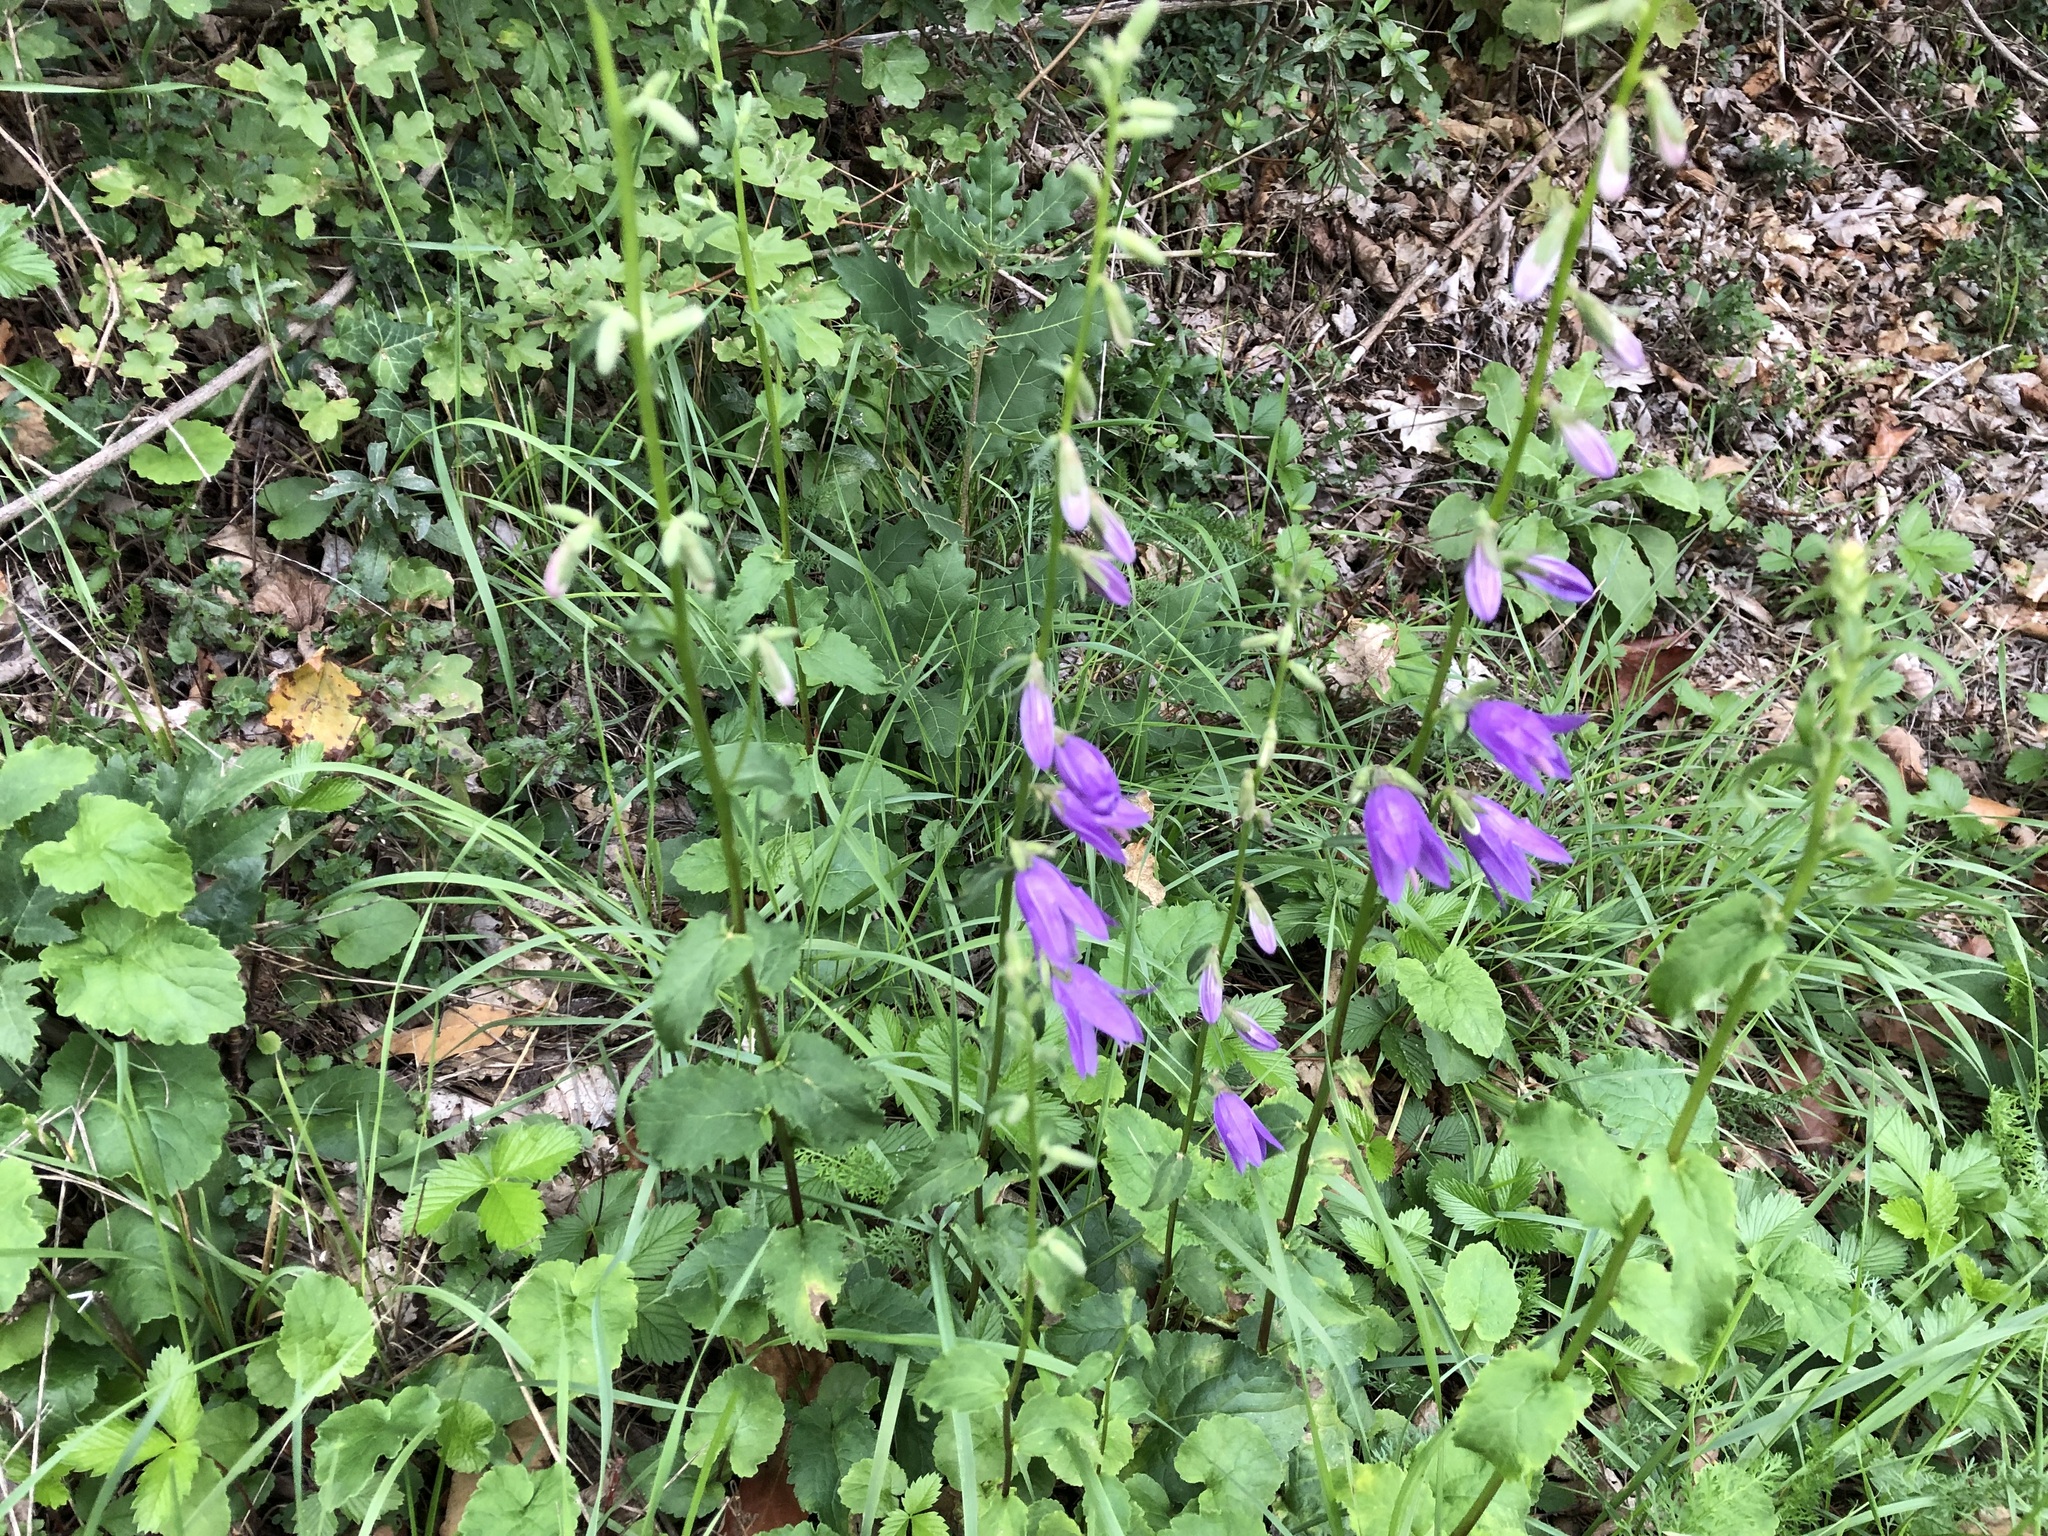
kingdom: Plantae
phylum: Tracheophyta
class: Magnoliopsida
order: Asterales
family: Campanulaceae
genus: Campanula
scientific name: Campanula rapunculoides
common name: Creeping bellflower
